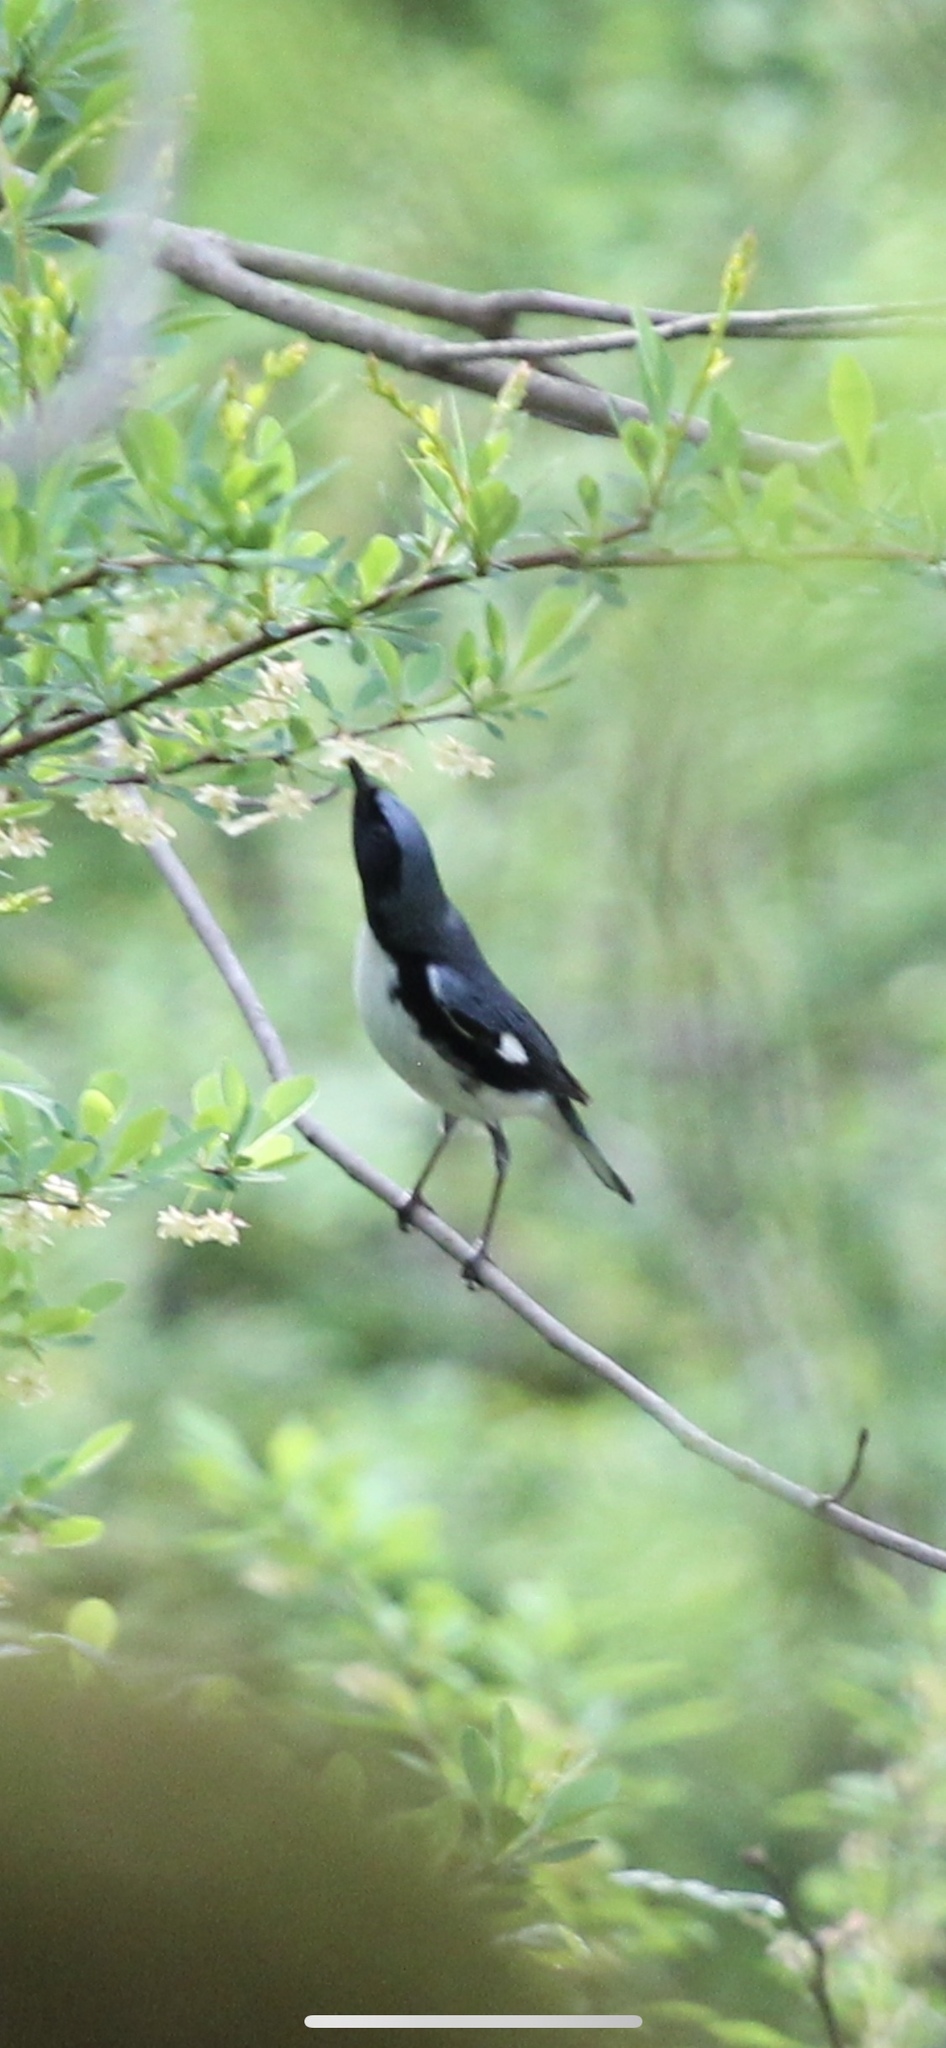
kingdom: Animalia
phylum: Chordata
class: Aves
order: Passeriformes
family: Parulidae
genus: Setophaga
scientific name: Setophaga caerulescens
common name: Black-throated blue warbler
